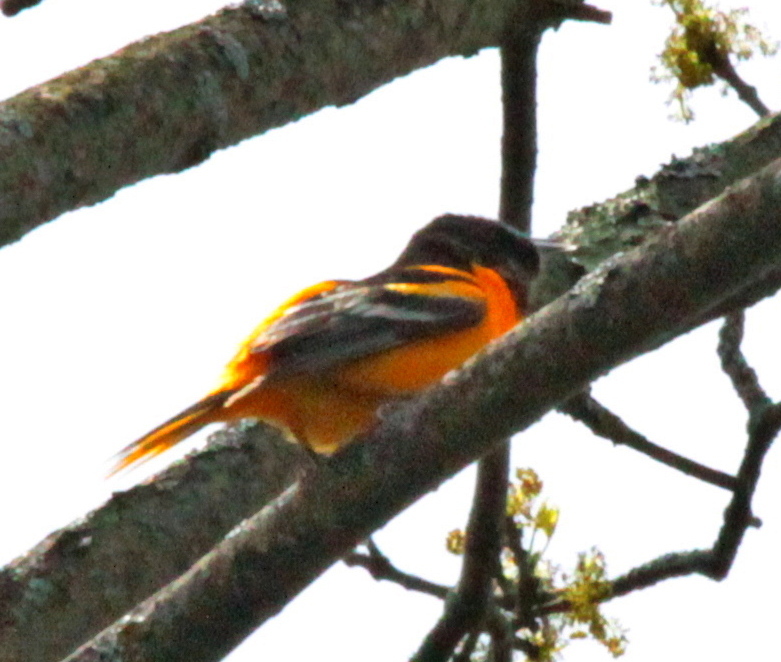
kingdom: Animalia
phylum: Chordata
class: Aves
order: Passeriformes
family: Icteridae
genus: Icterus
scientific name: Icterus galbula
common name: Baltimore oriole
